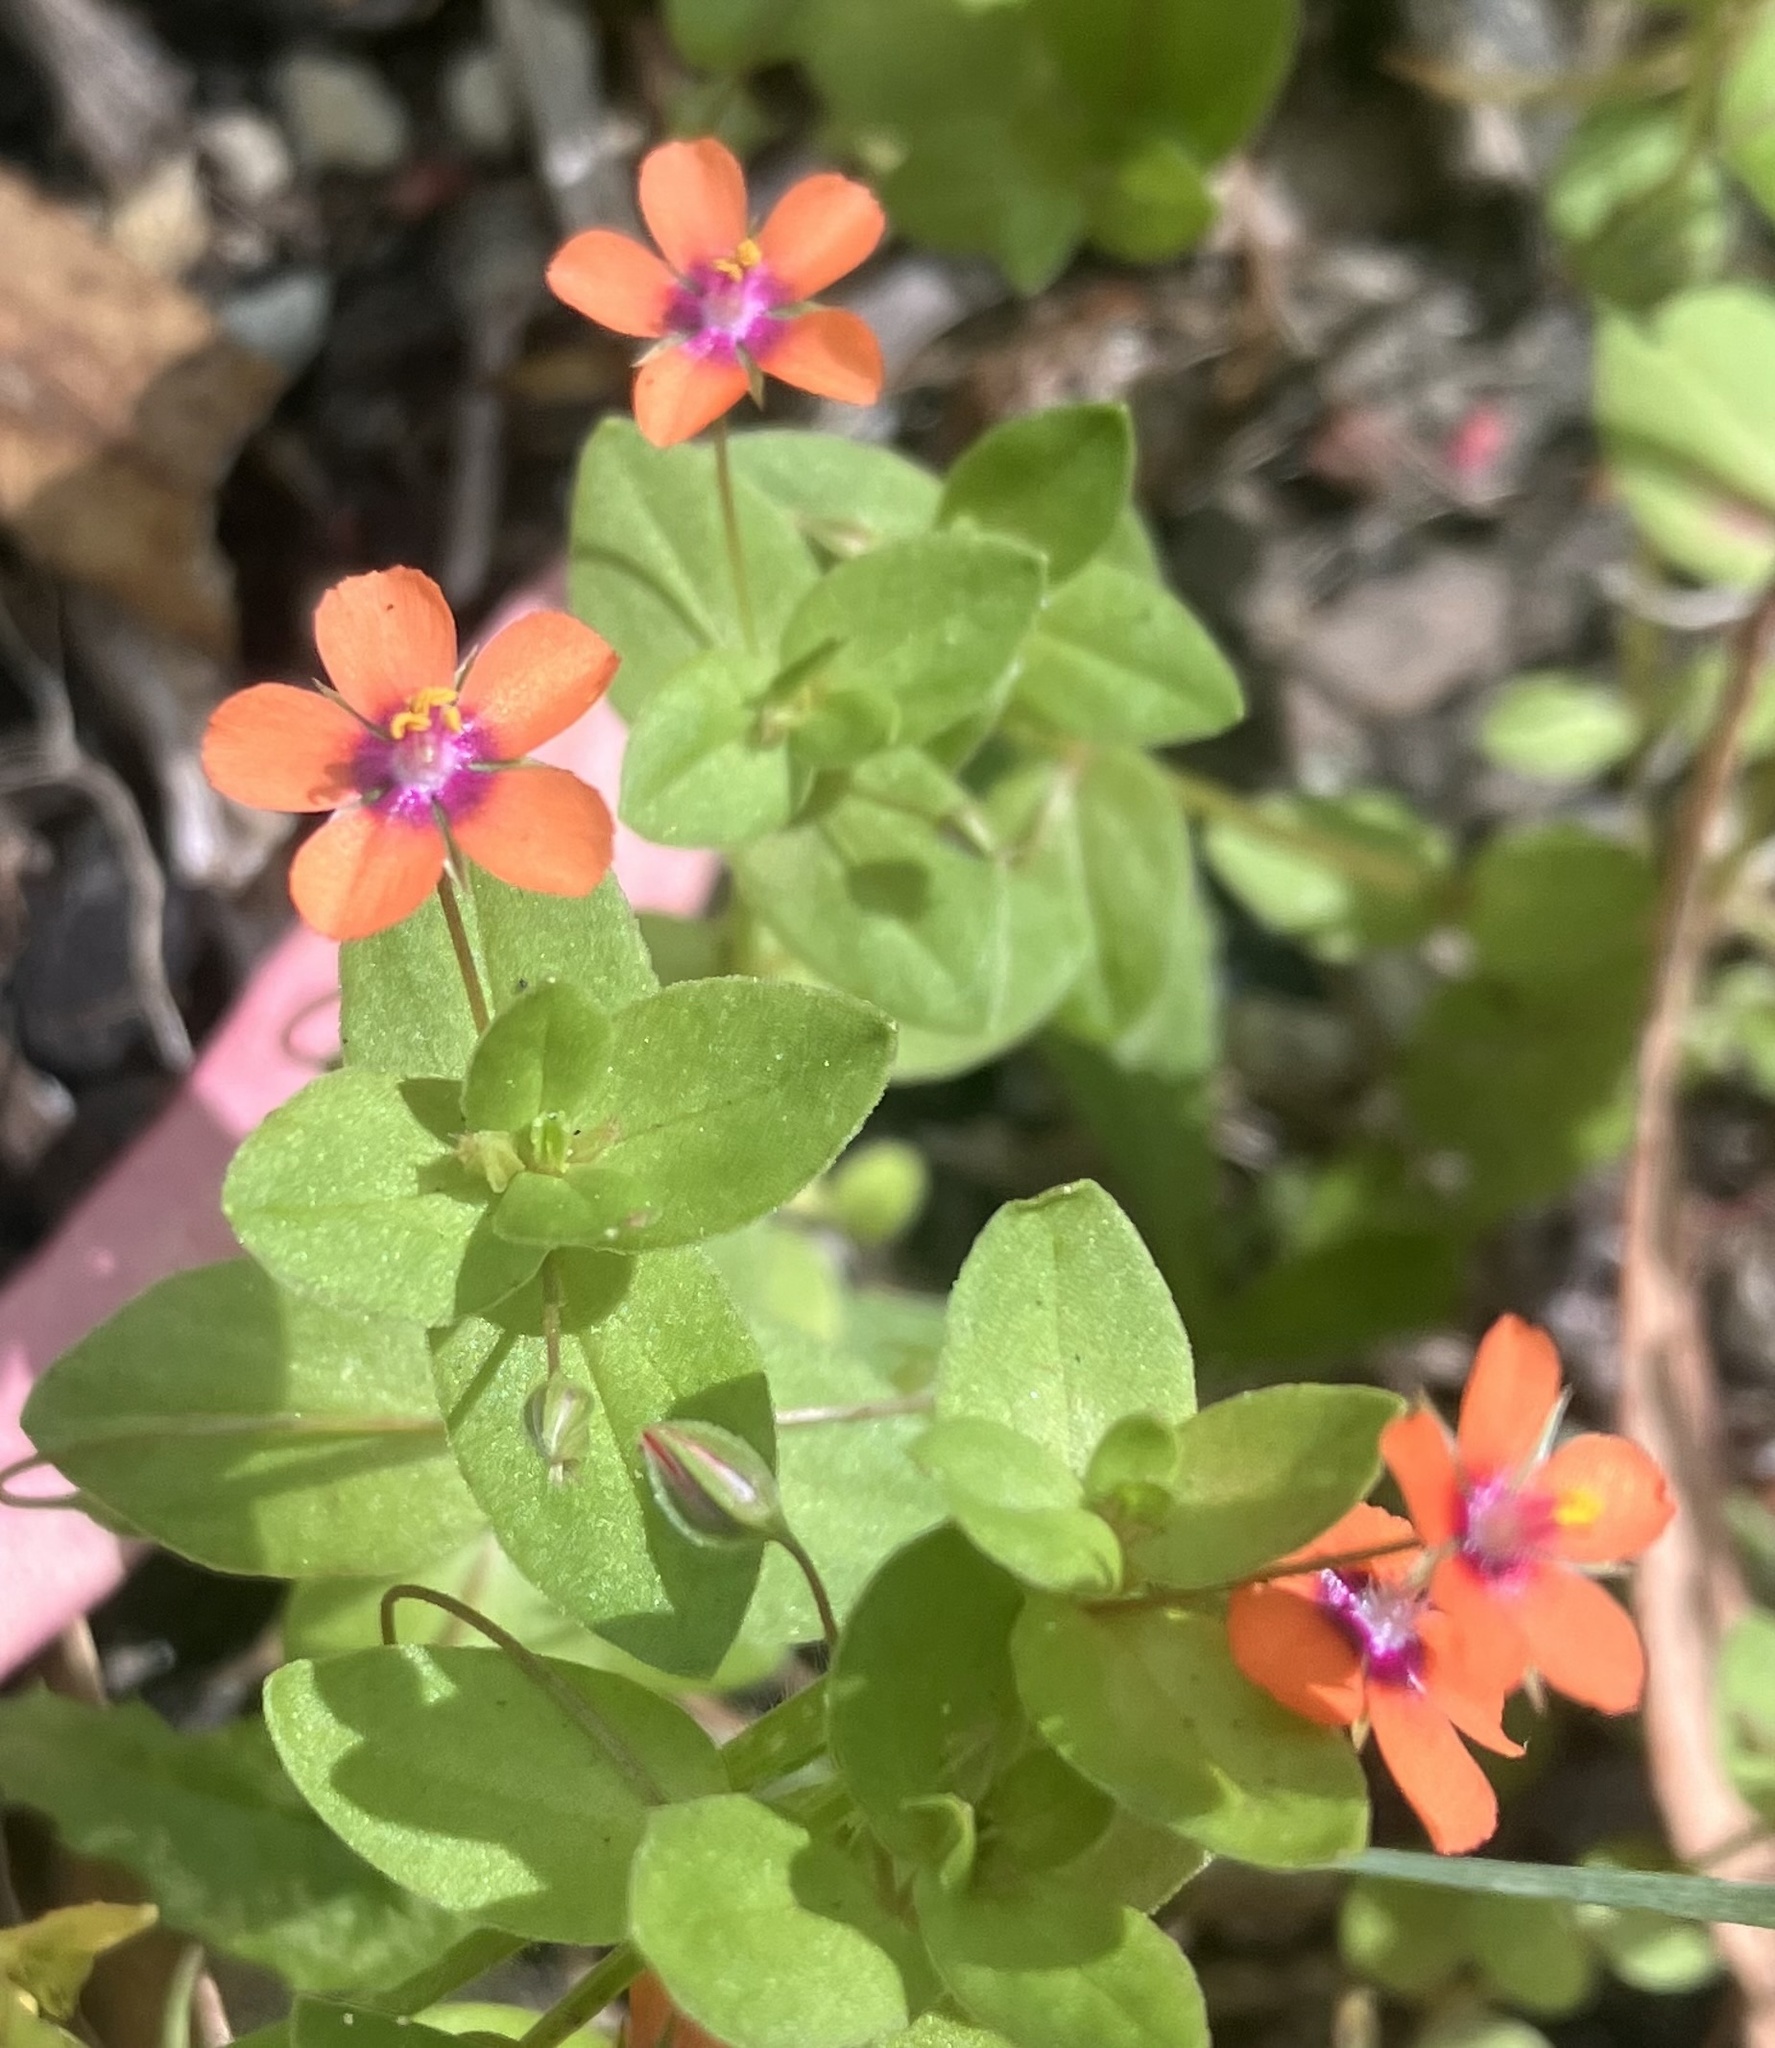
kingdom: Plantae
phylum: Tracheophyta
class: Magnoliopsida
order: Ericales
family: Primulaceae
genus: Lysimachia
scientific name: Lysimachia arvensis
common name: Scarlet pimpernel
